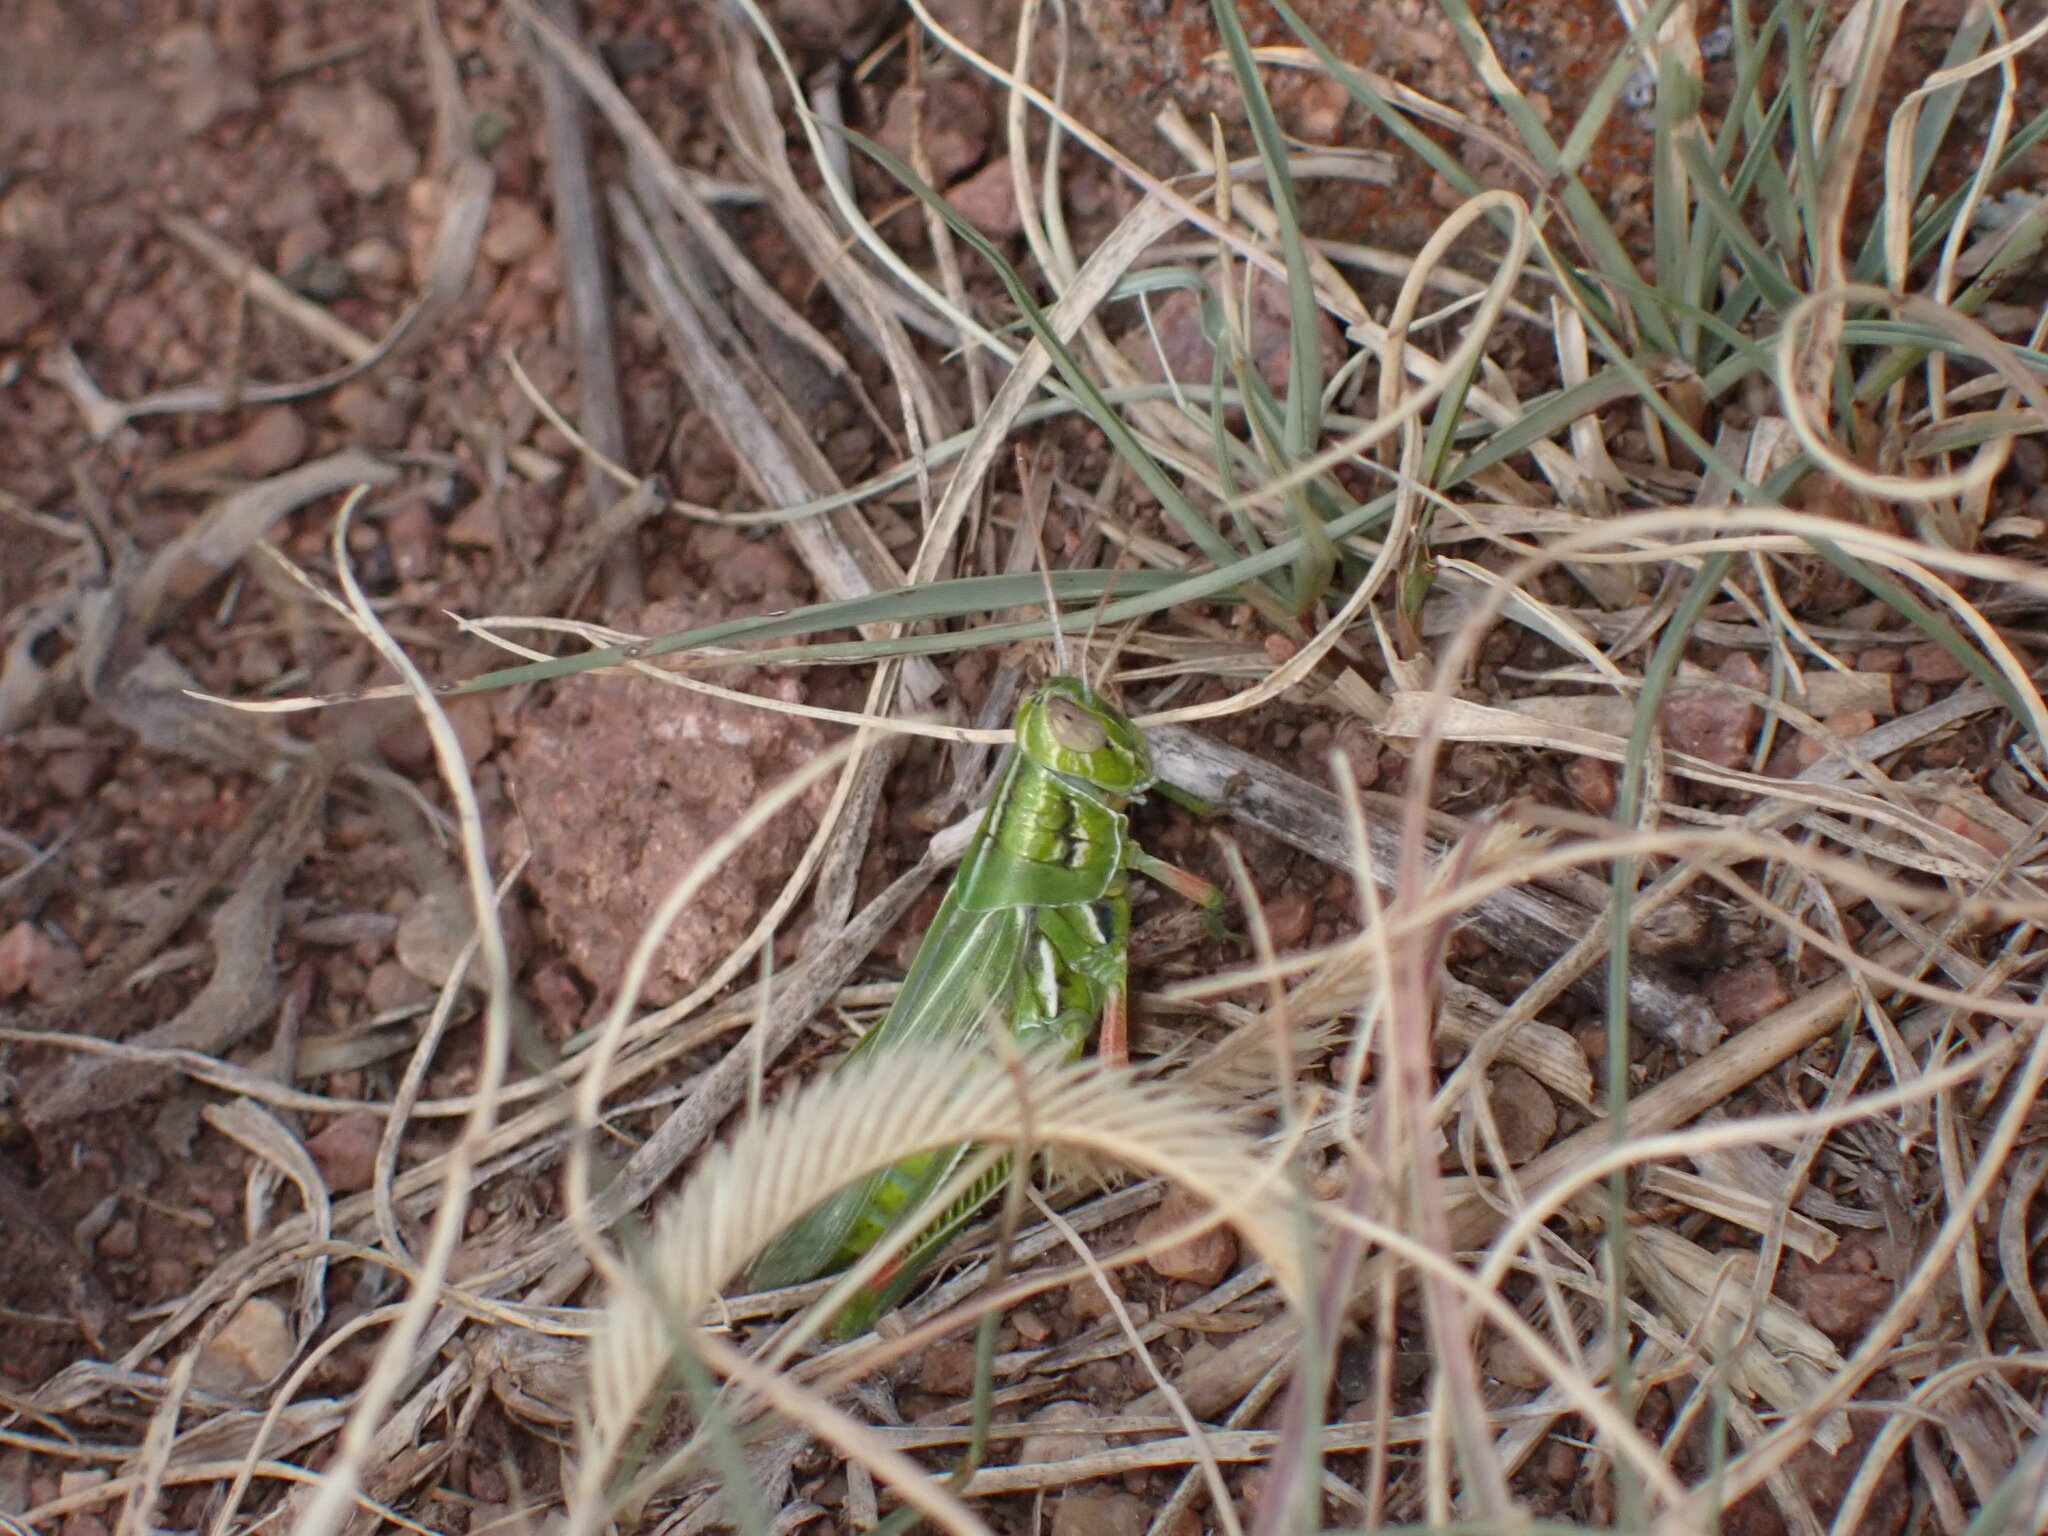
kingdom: Animalia
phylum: Arthropoda
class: Insecta
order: Orthoptera
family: Acrididae
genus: Hesperotettix
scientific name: Hesperotettix viridis
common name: Meadow purple-striped grasshopper
